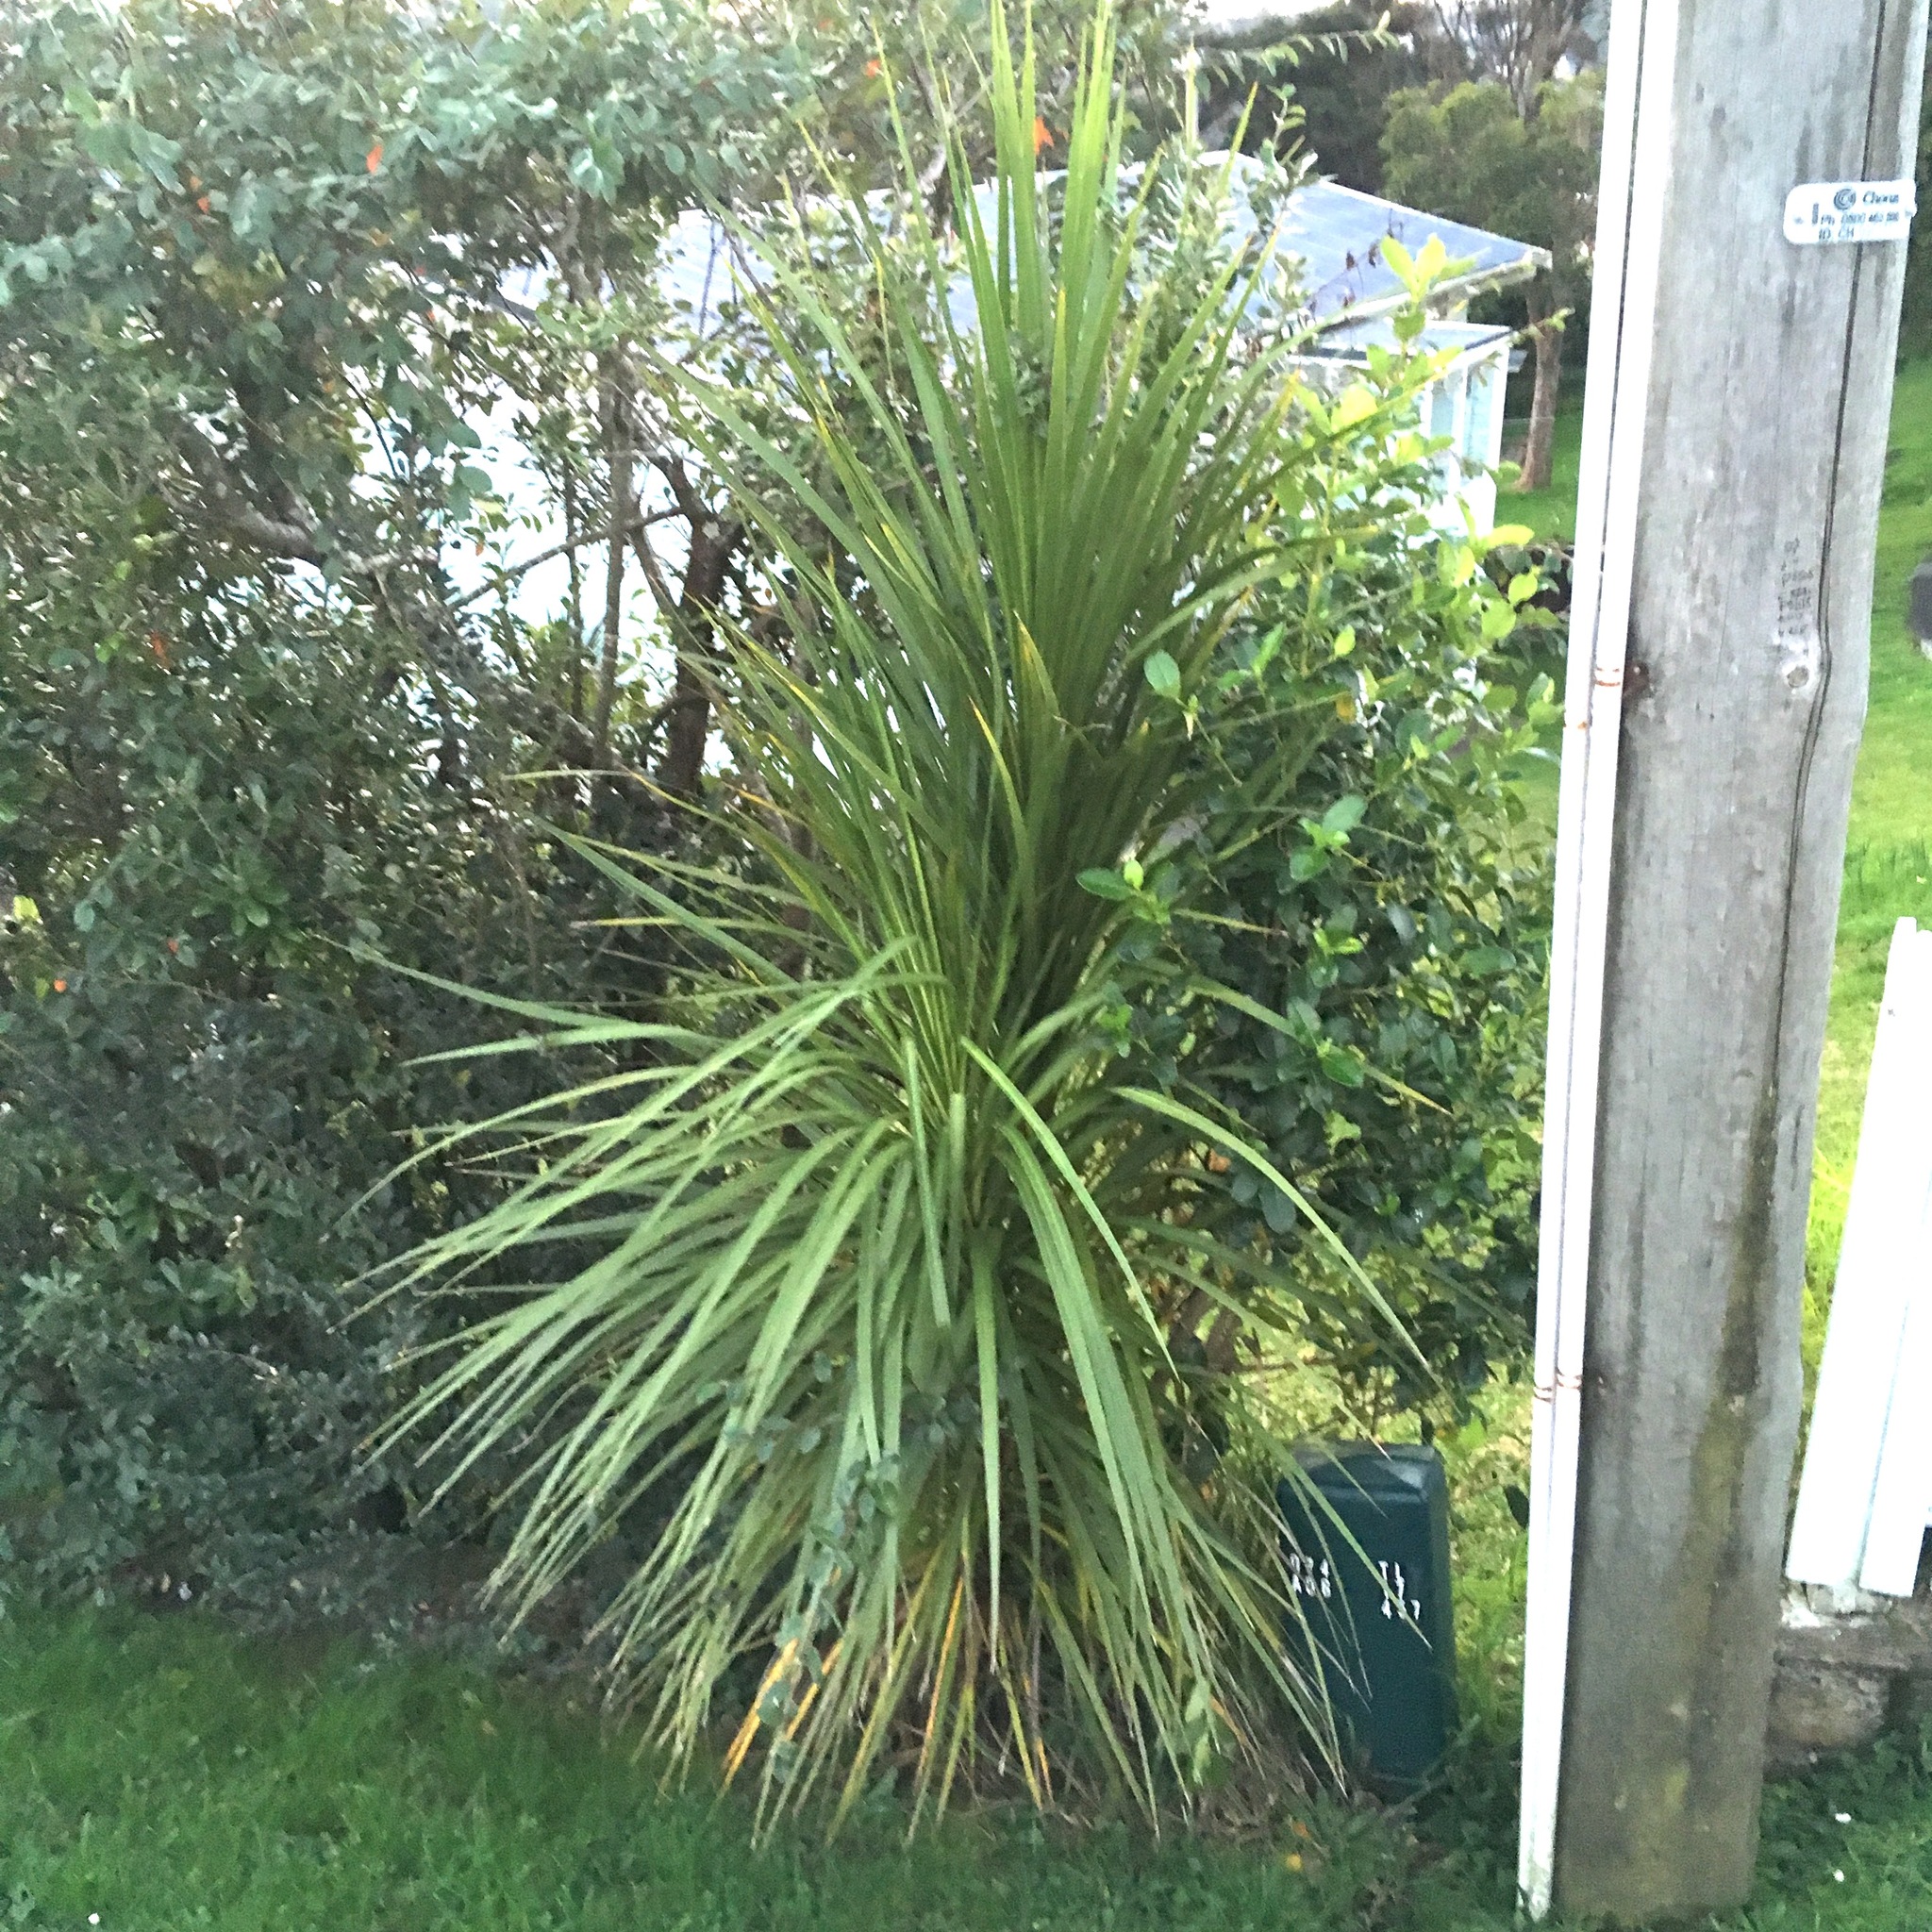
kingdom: Plantae
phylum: Tracheophyta
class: Liliopsida
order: Asparagales
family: Asparagaceae
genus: Cordyline
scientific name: Cordyline australis
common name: Cabbage-palm
